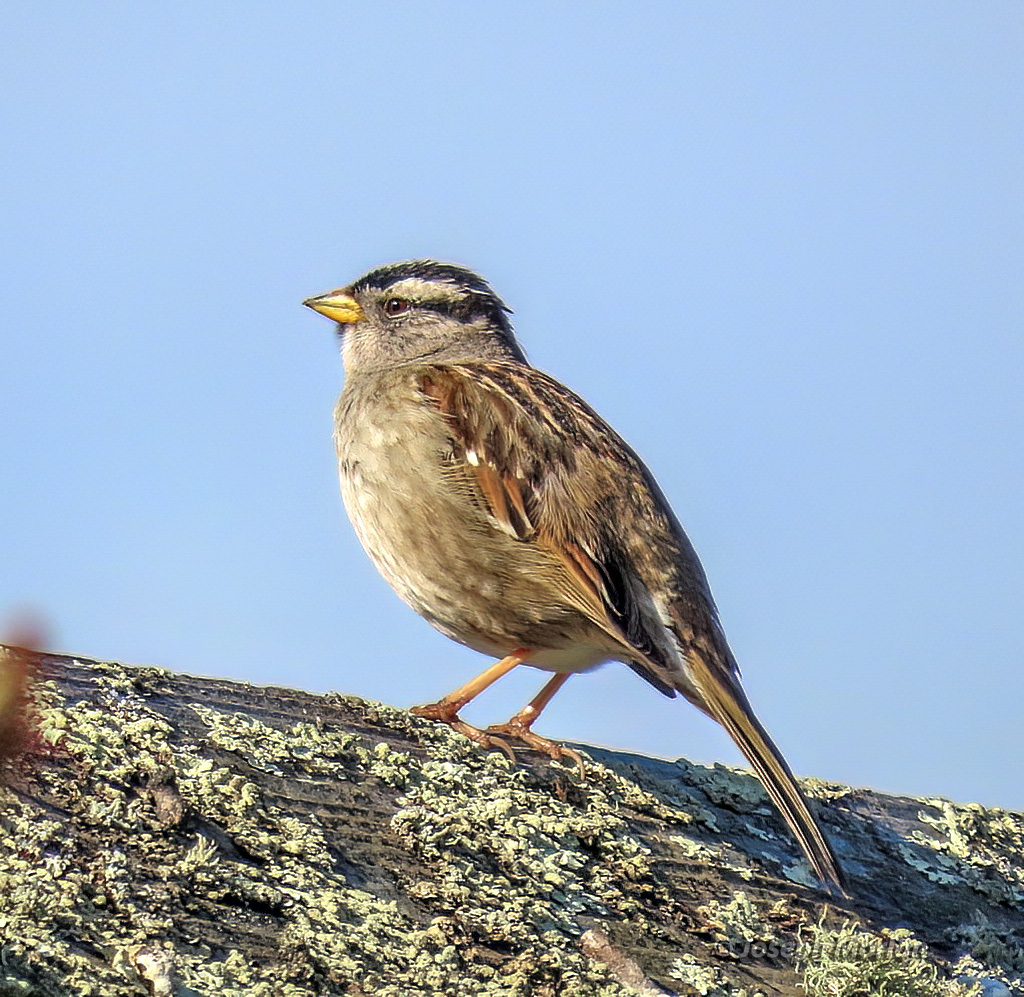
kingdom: Animalia
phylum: Chordata
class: Aves
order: Passeriformes
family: Passerellidae
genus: Zonotrichia
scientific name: Zonotrichia leucophrys
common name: White-crowned sparrow
